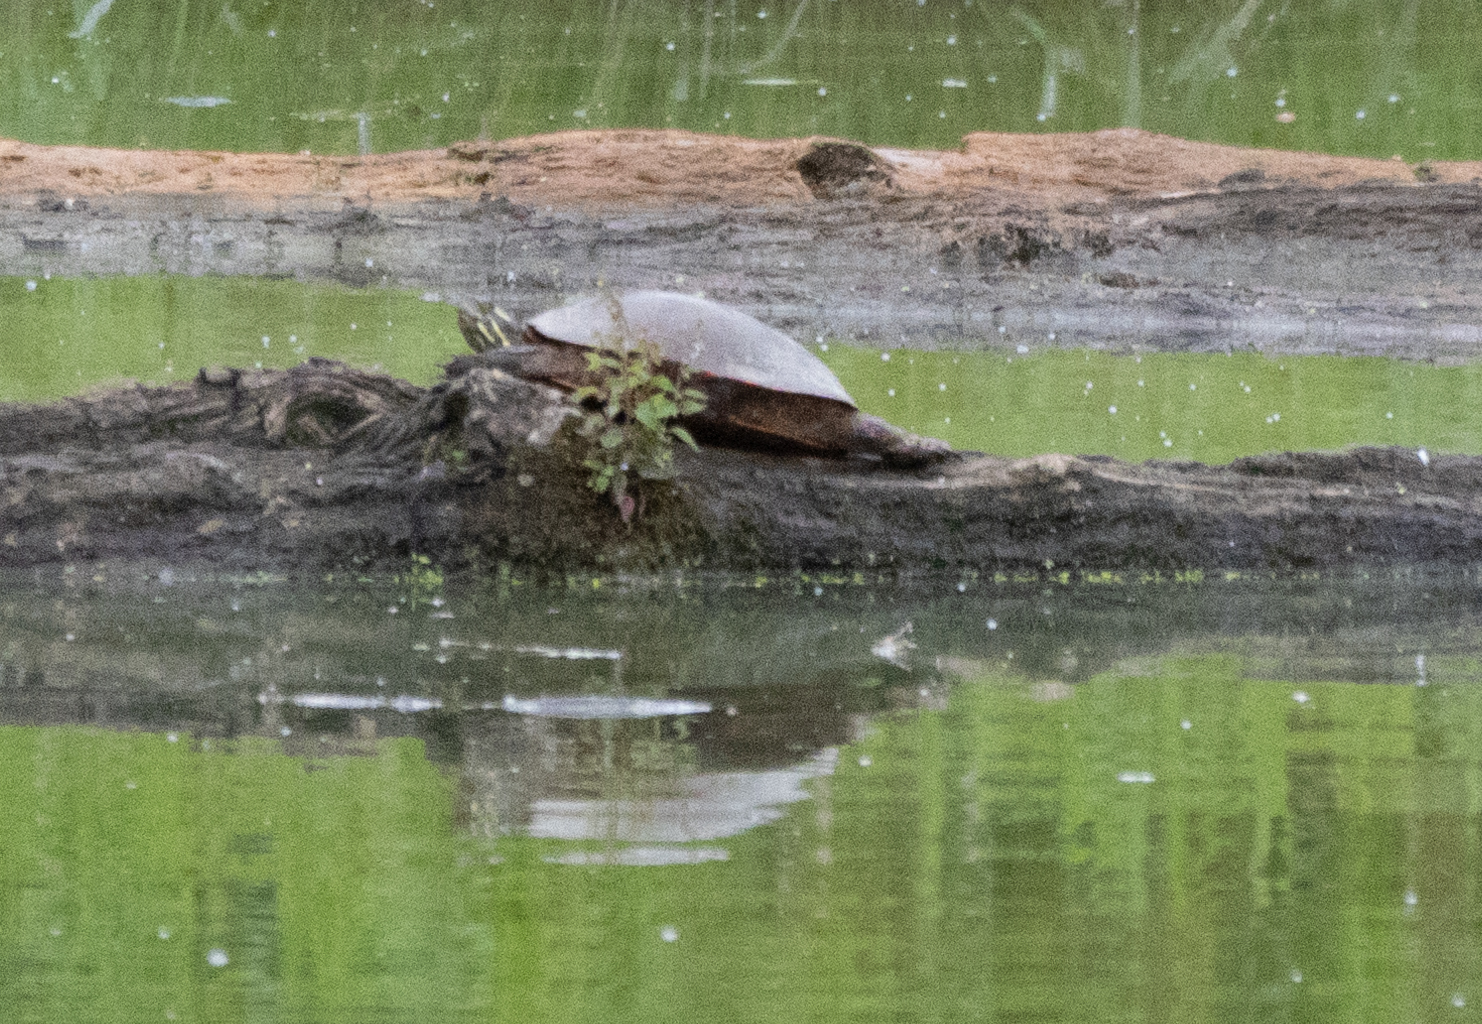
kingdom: Animalia
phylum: Chordata
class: Testudines
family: Emydidae
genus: Chrysemys
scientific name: Chrysemys picta
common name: Painted turtle
